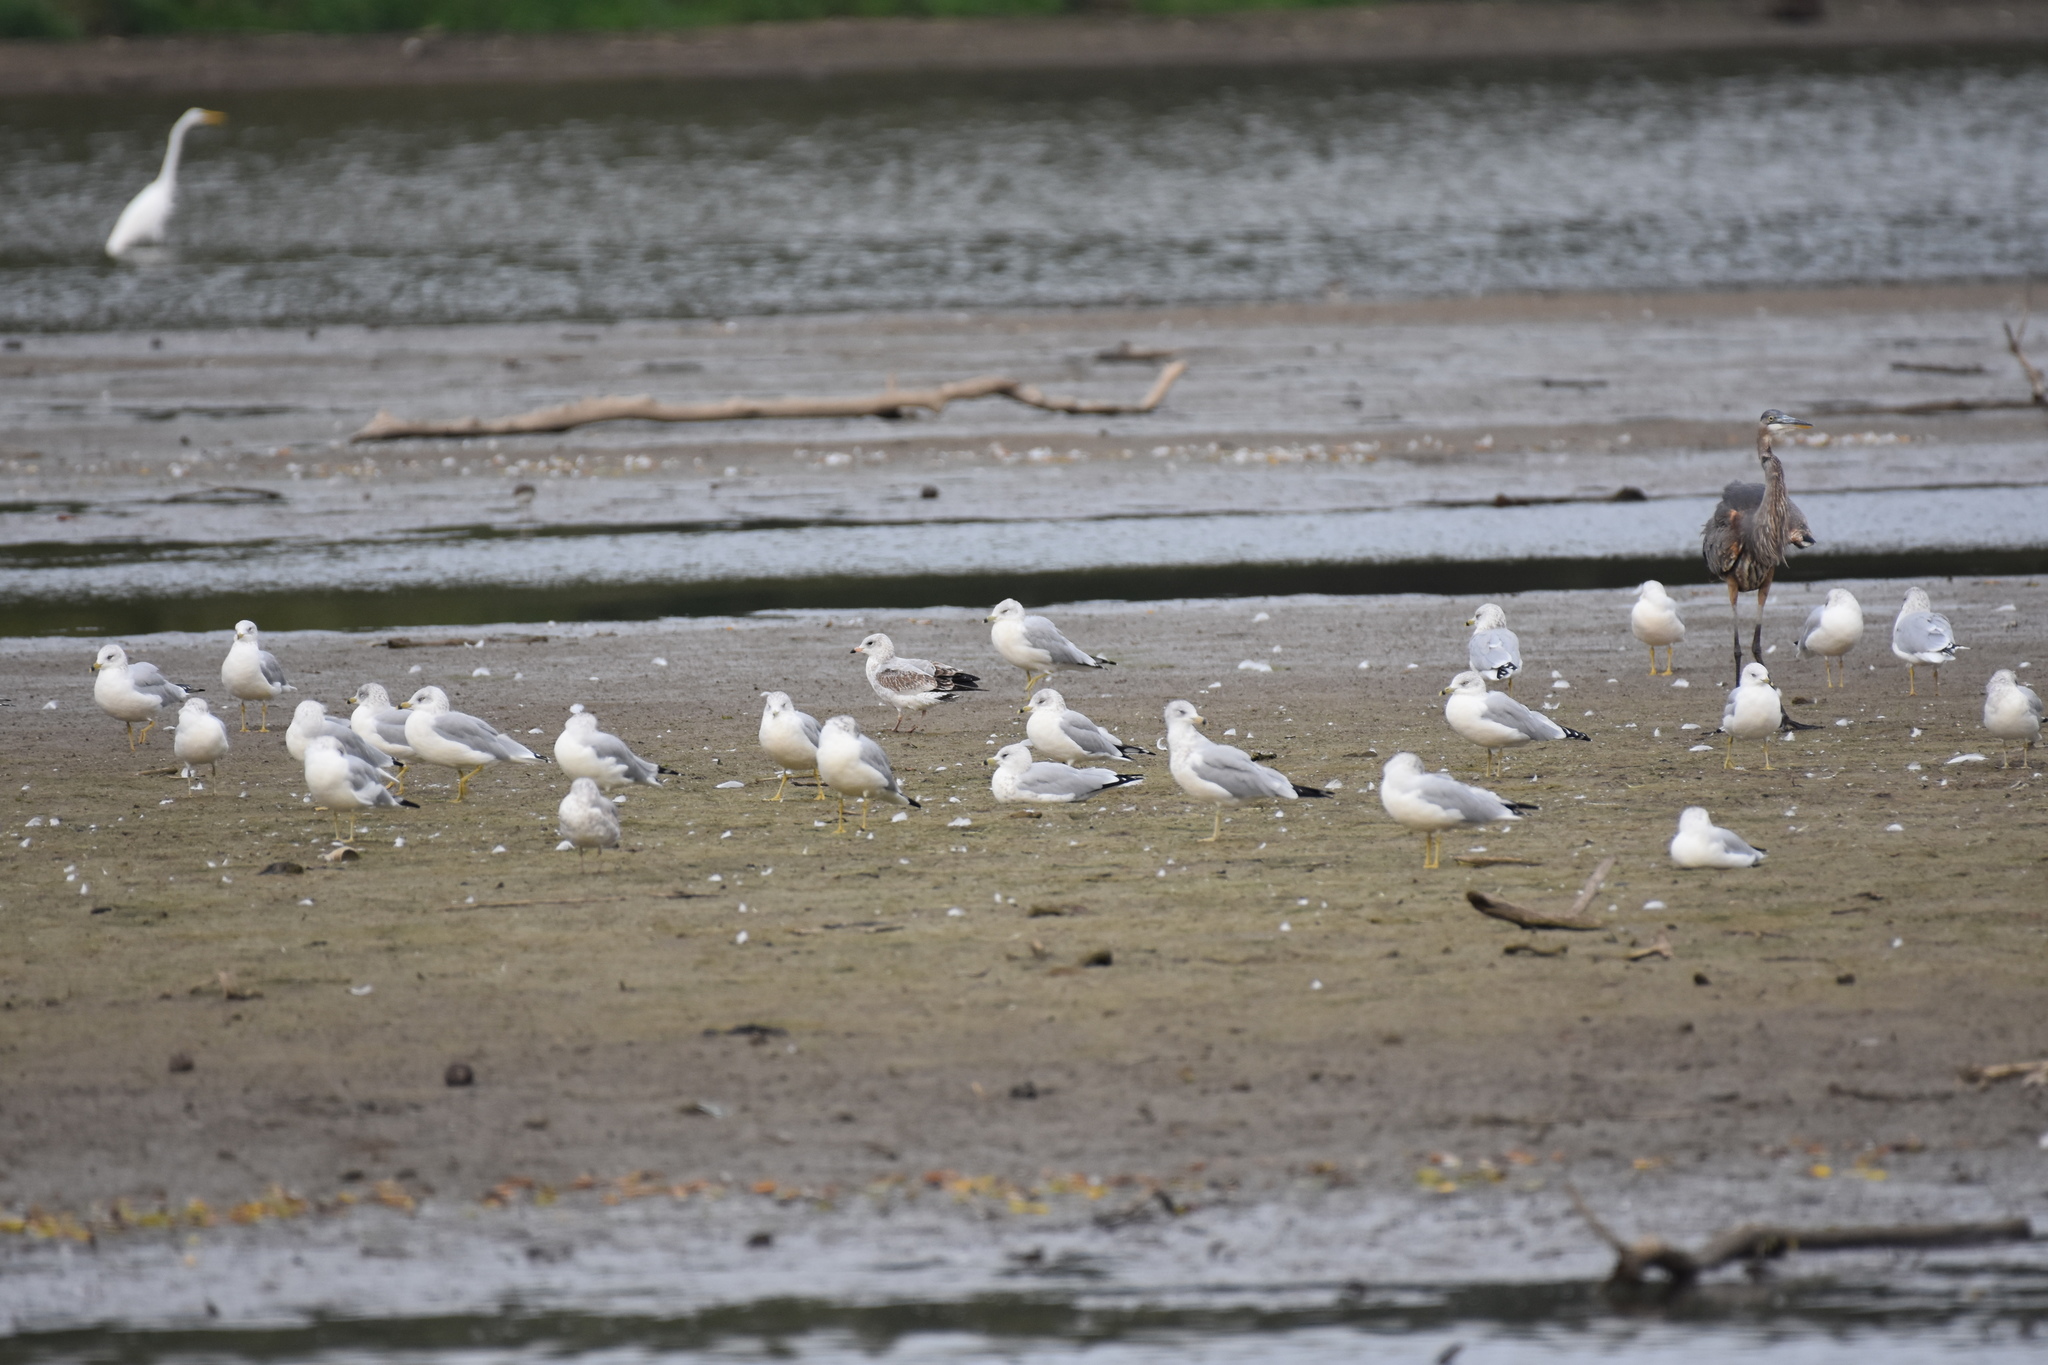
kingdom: Animalia
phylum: Chordata
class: Aves
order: Charadriiformes
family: Laridae
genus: Larus
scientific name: Larus delawarensis
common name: Ring-billed gull
